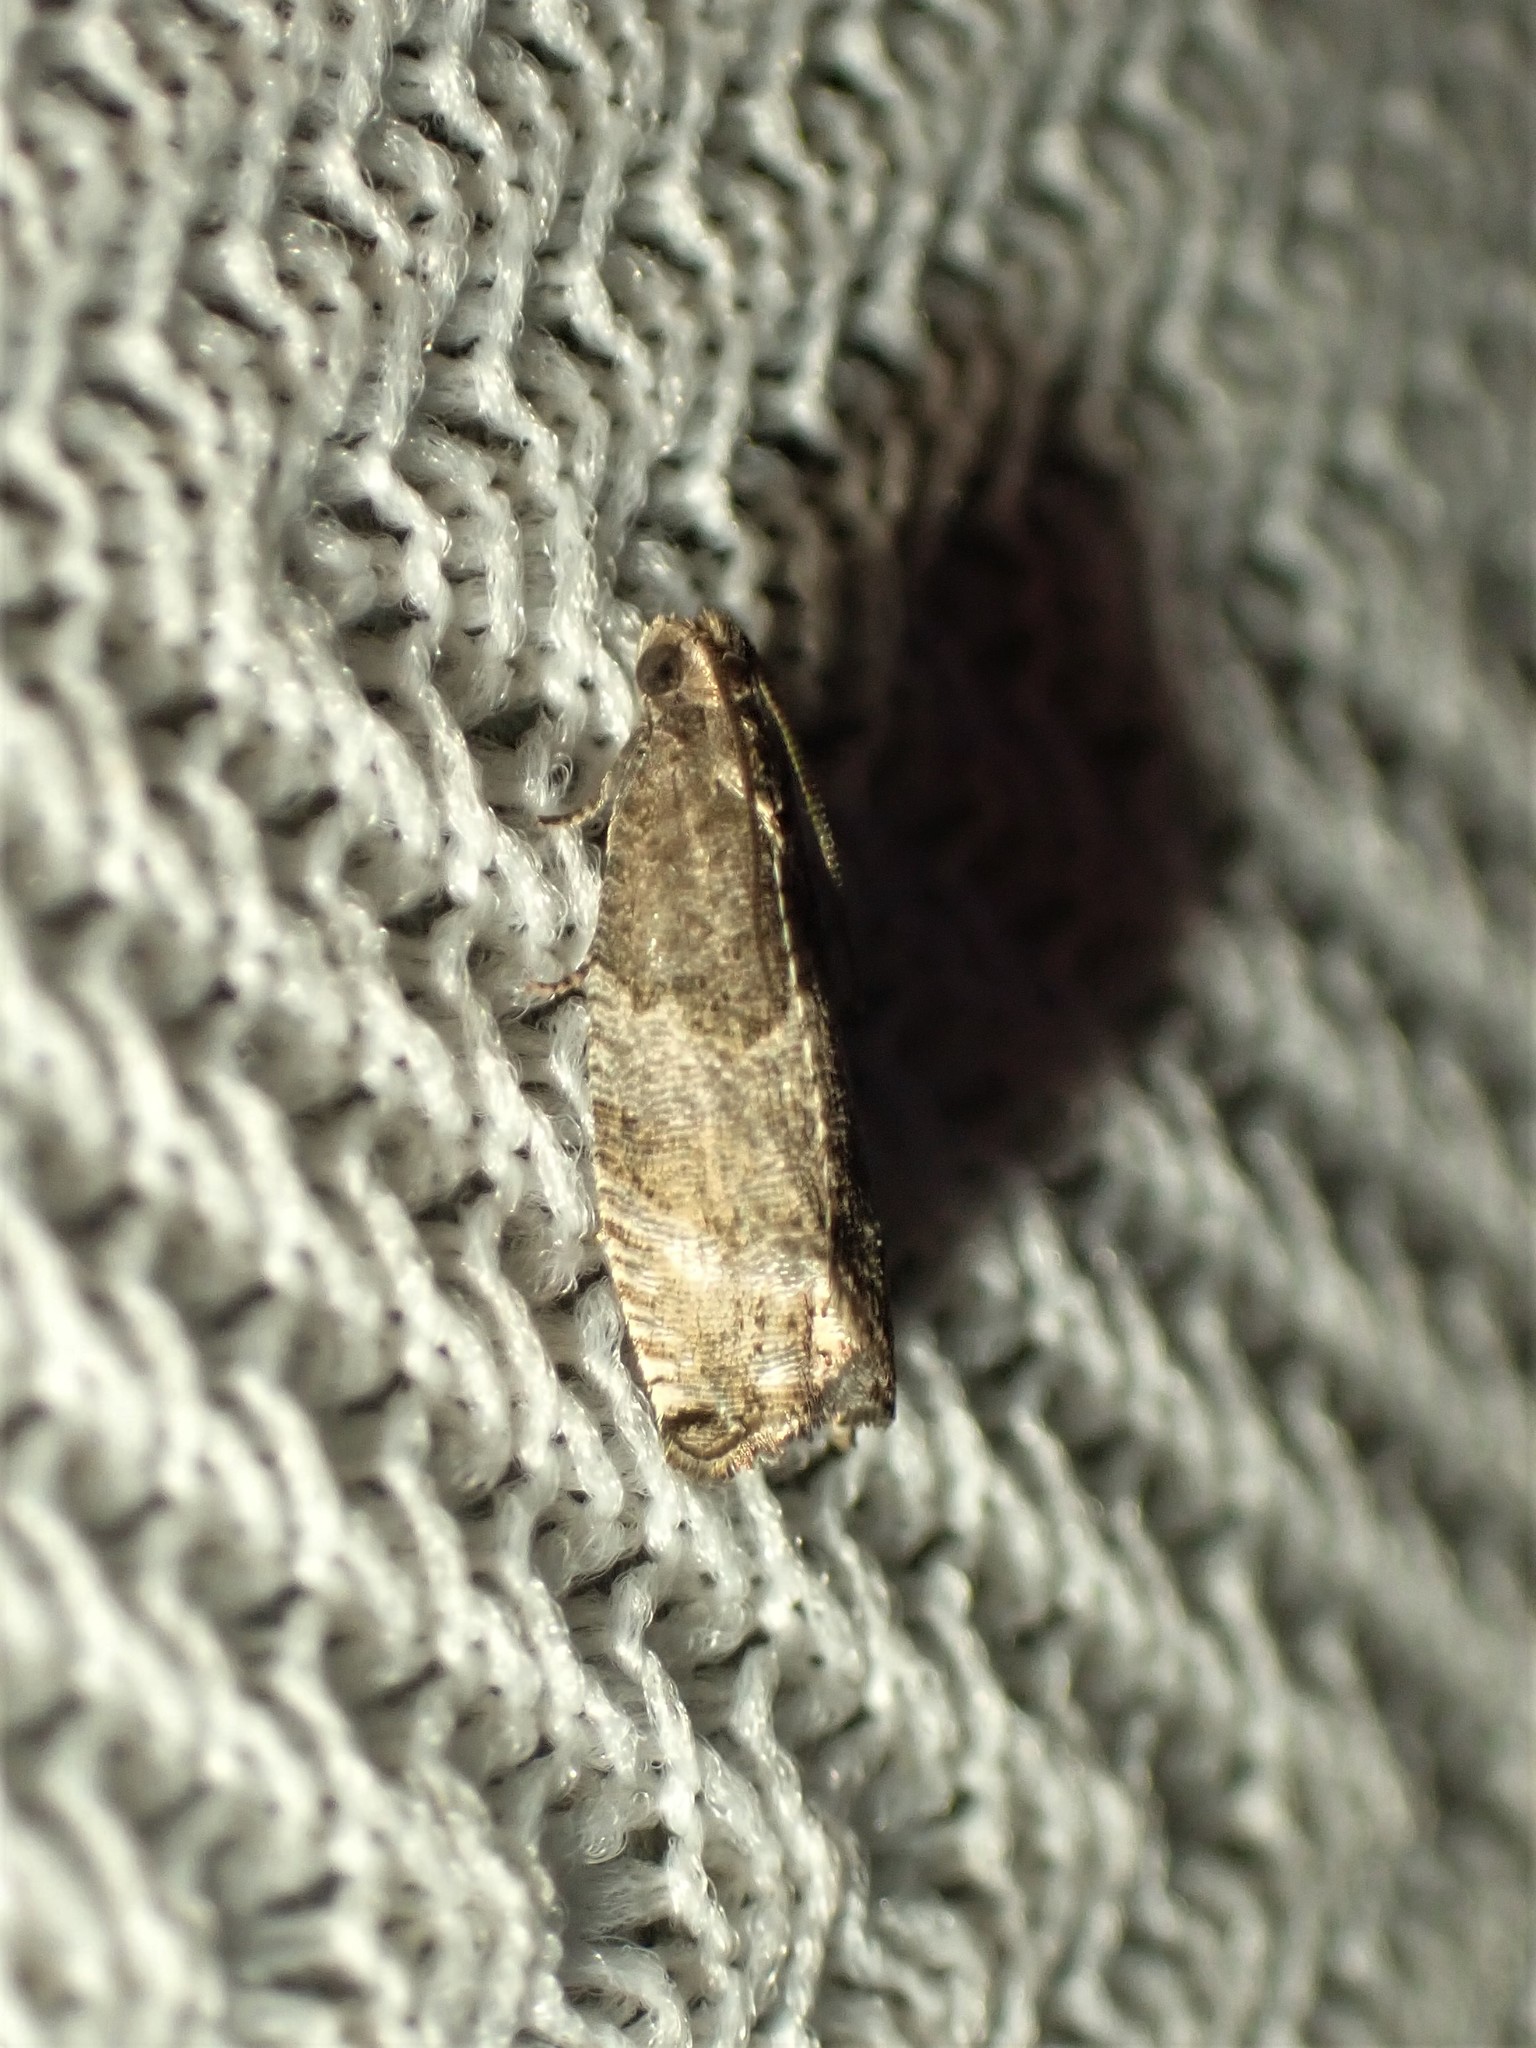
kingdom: Animalia
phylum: Arthropoda
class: Insecta
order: Lepidoptera
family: Tortricidae
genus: Gypsonoma
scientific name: Gypsonoma salicicolana
